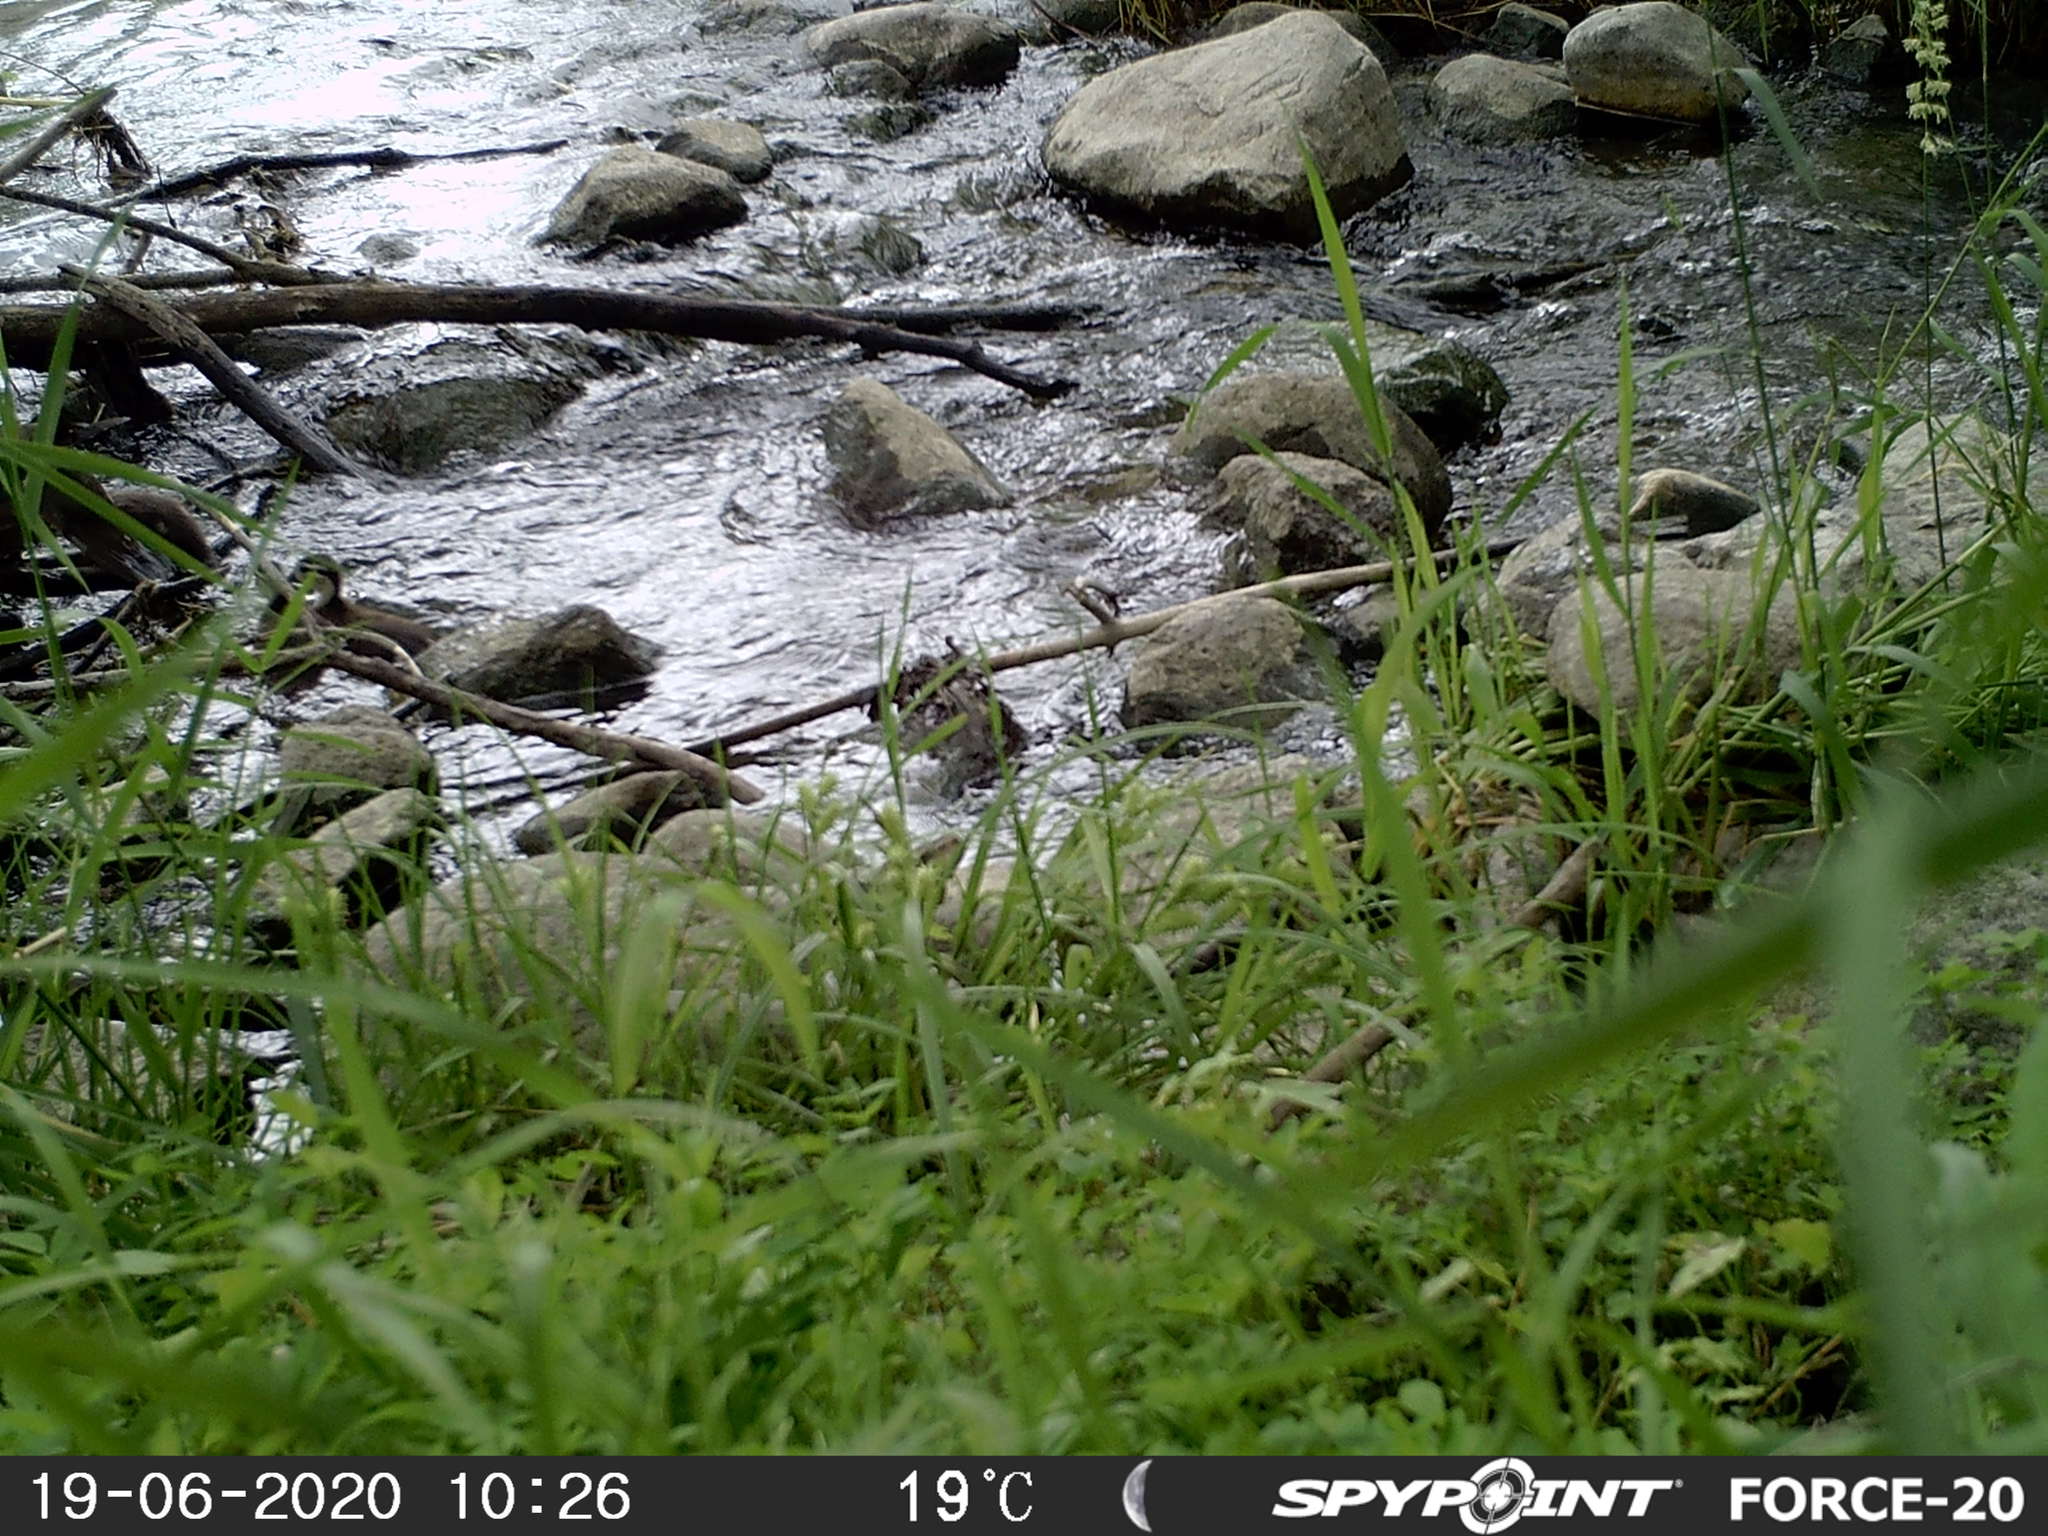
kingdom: Animalia
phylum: Chordata
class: Aves
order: Anseriformes
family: Anatidae
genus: Aix
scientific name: Aix sponsa
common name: Wood duck
